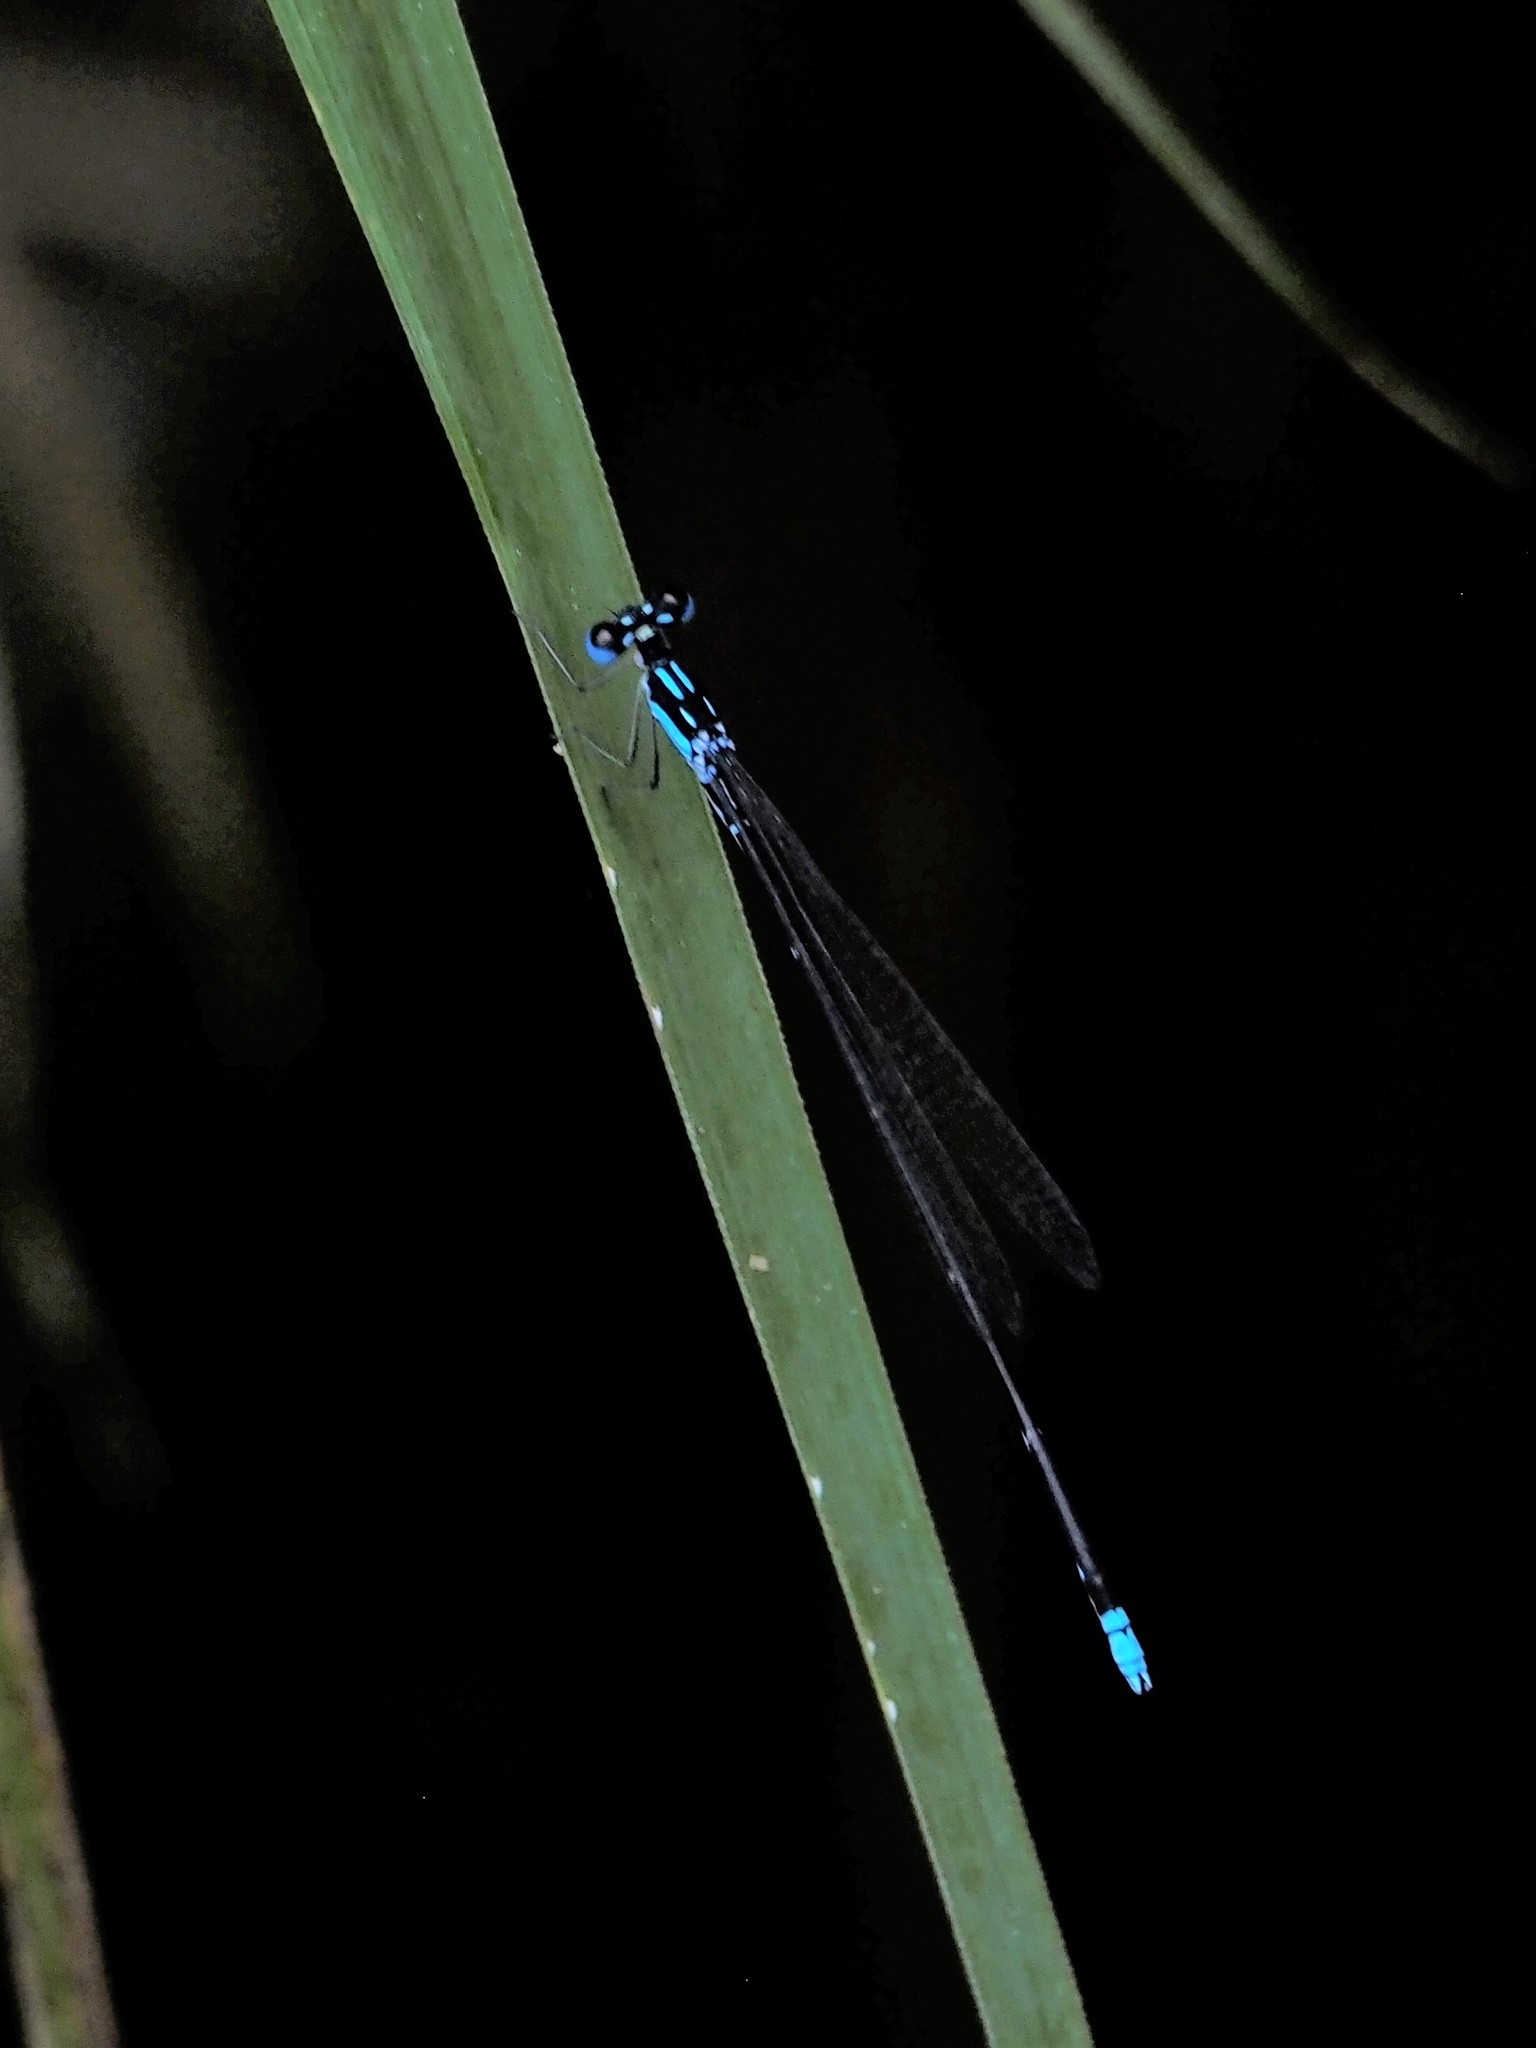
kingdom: Animalia
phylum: Arthropoda
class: Insecta
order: Odonata
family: Platycnemididae
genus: Coeliccia
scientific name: Coeliccia cyanomelas
